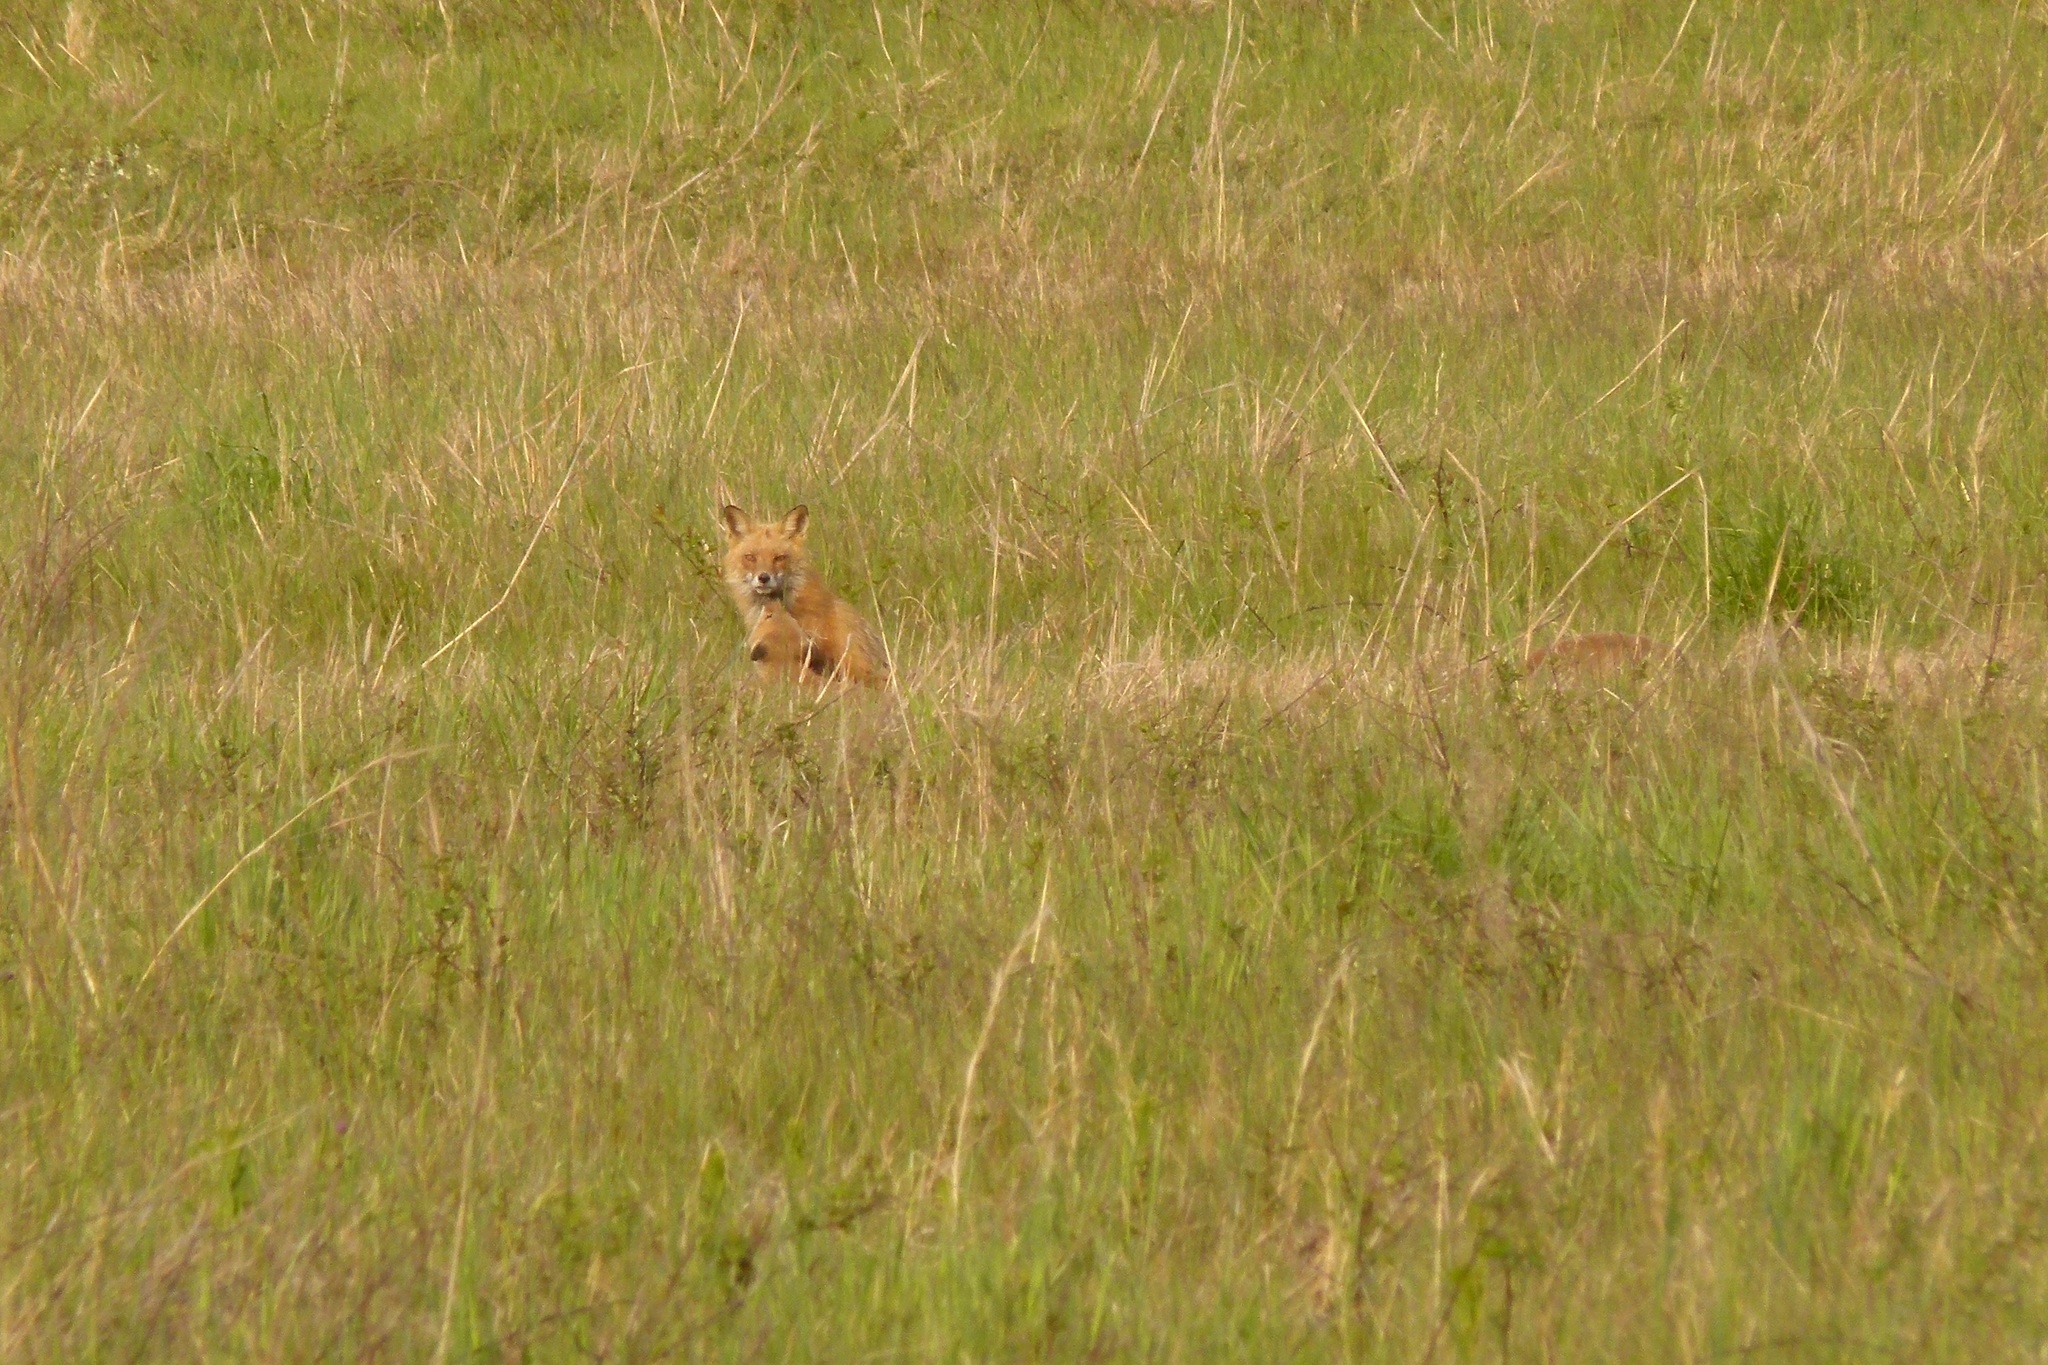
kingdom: Animalia
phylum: Chordata
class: Mammalia
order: Carnivora
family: Canidae
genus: Vulpes
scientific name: Vulpes vulpes
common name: Red fox
